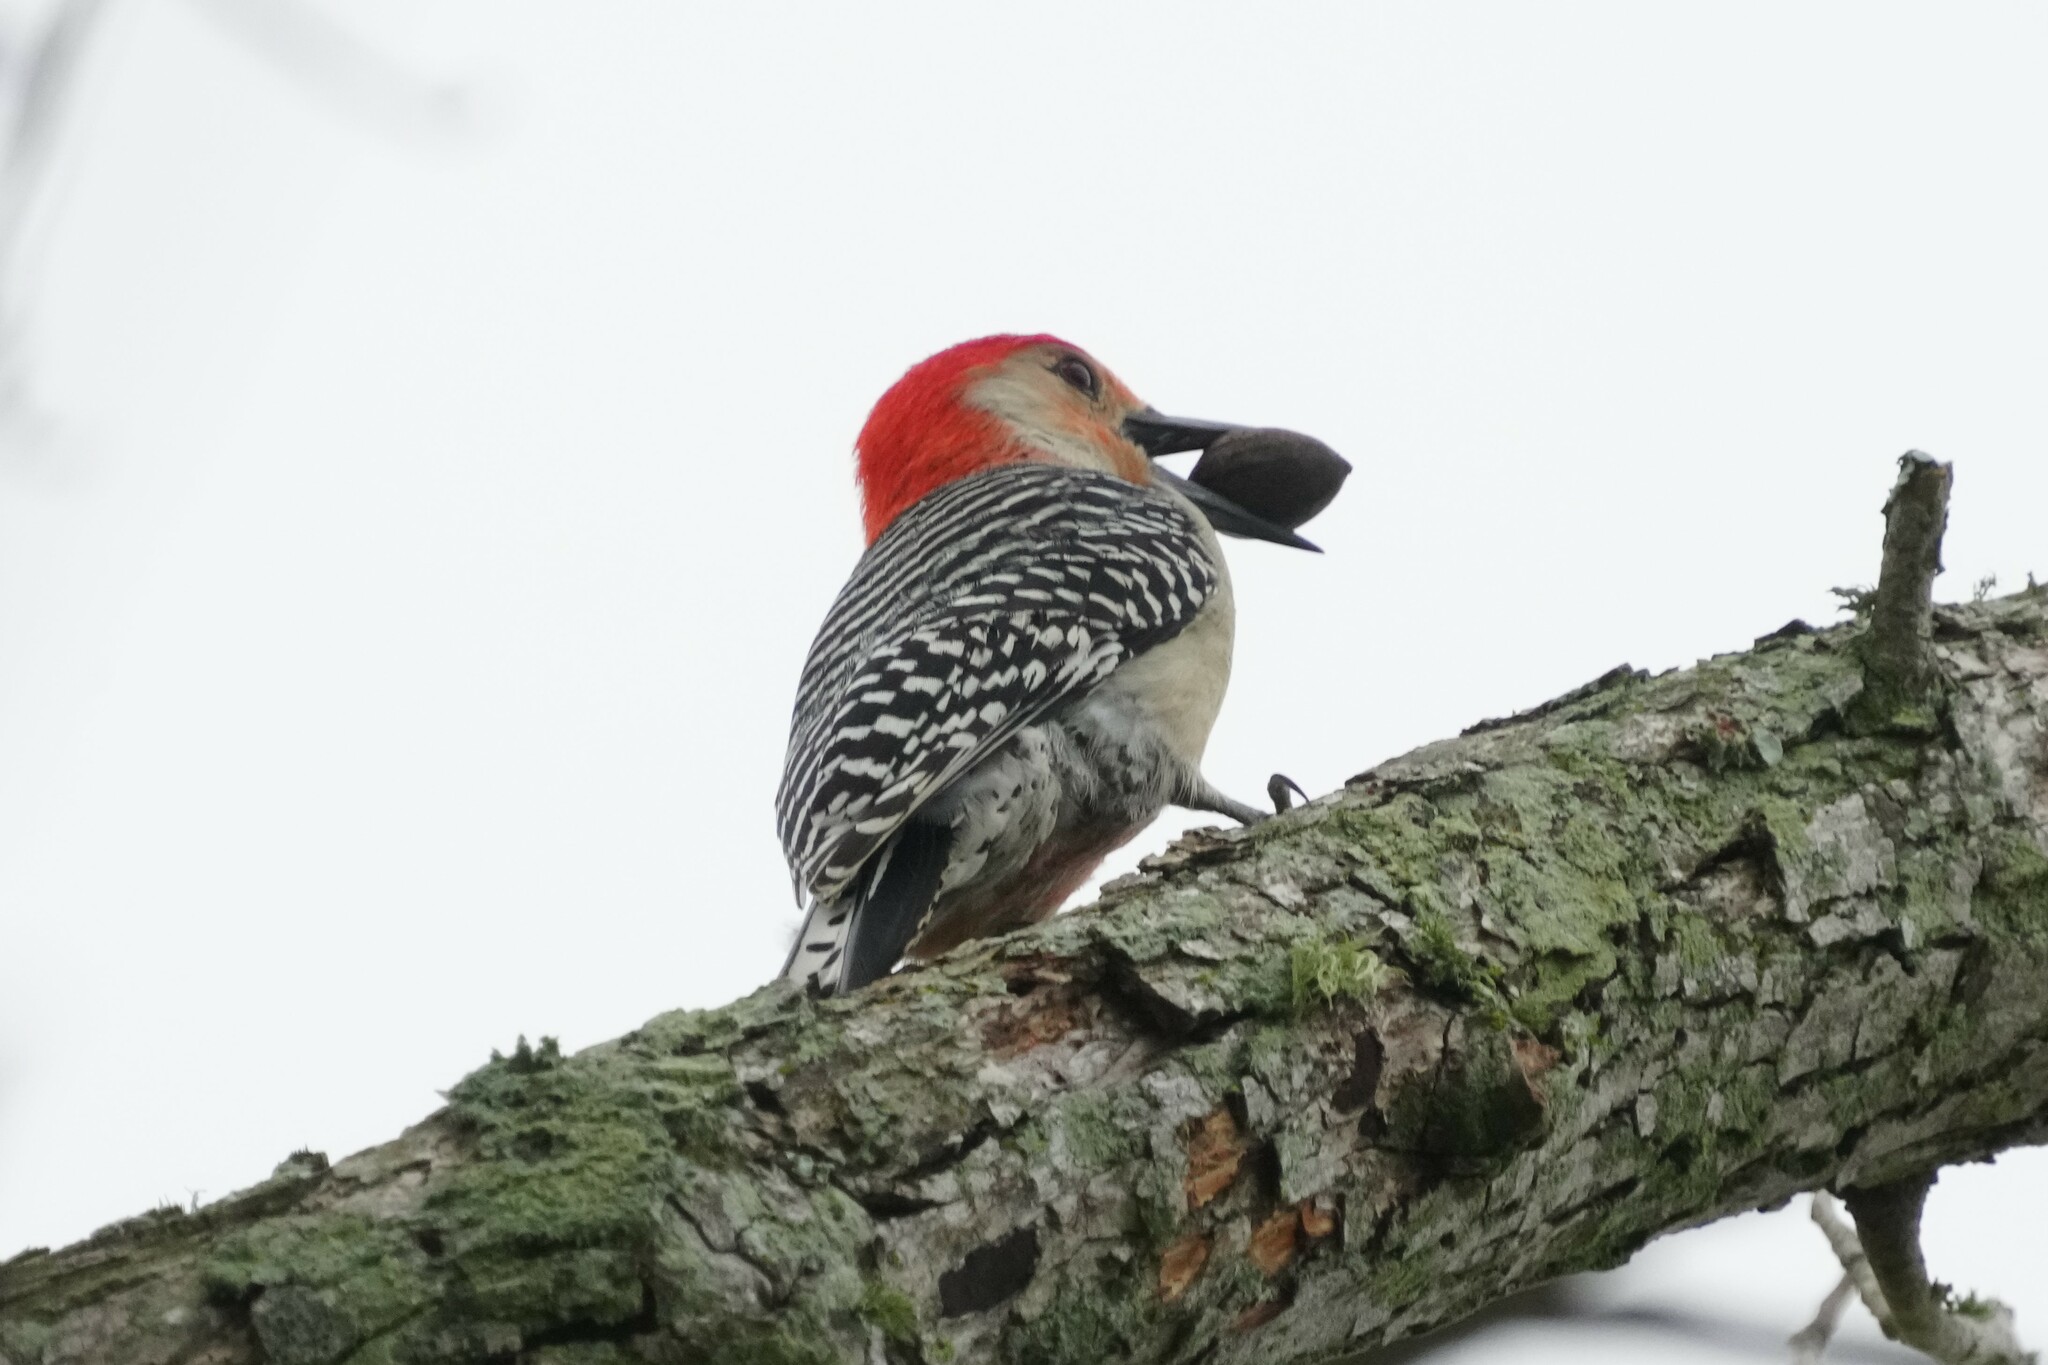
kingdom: Animalia
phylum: Chordata
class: Aves
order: Piciformes
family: Picidae
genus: Melanerpes
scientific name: Melanerpes carolinus
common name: Red-bellied woodpecker
